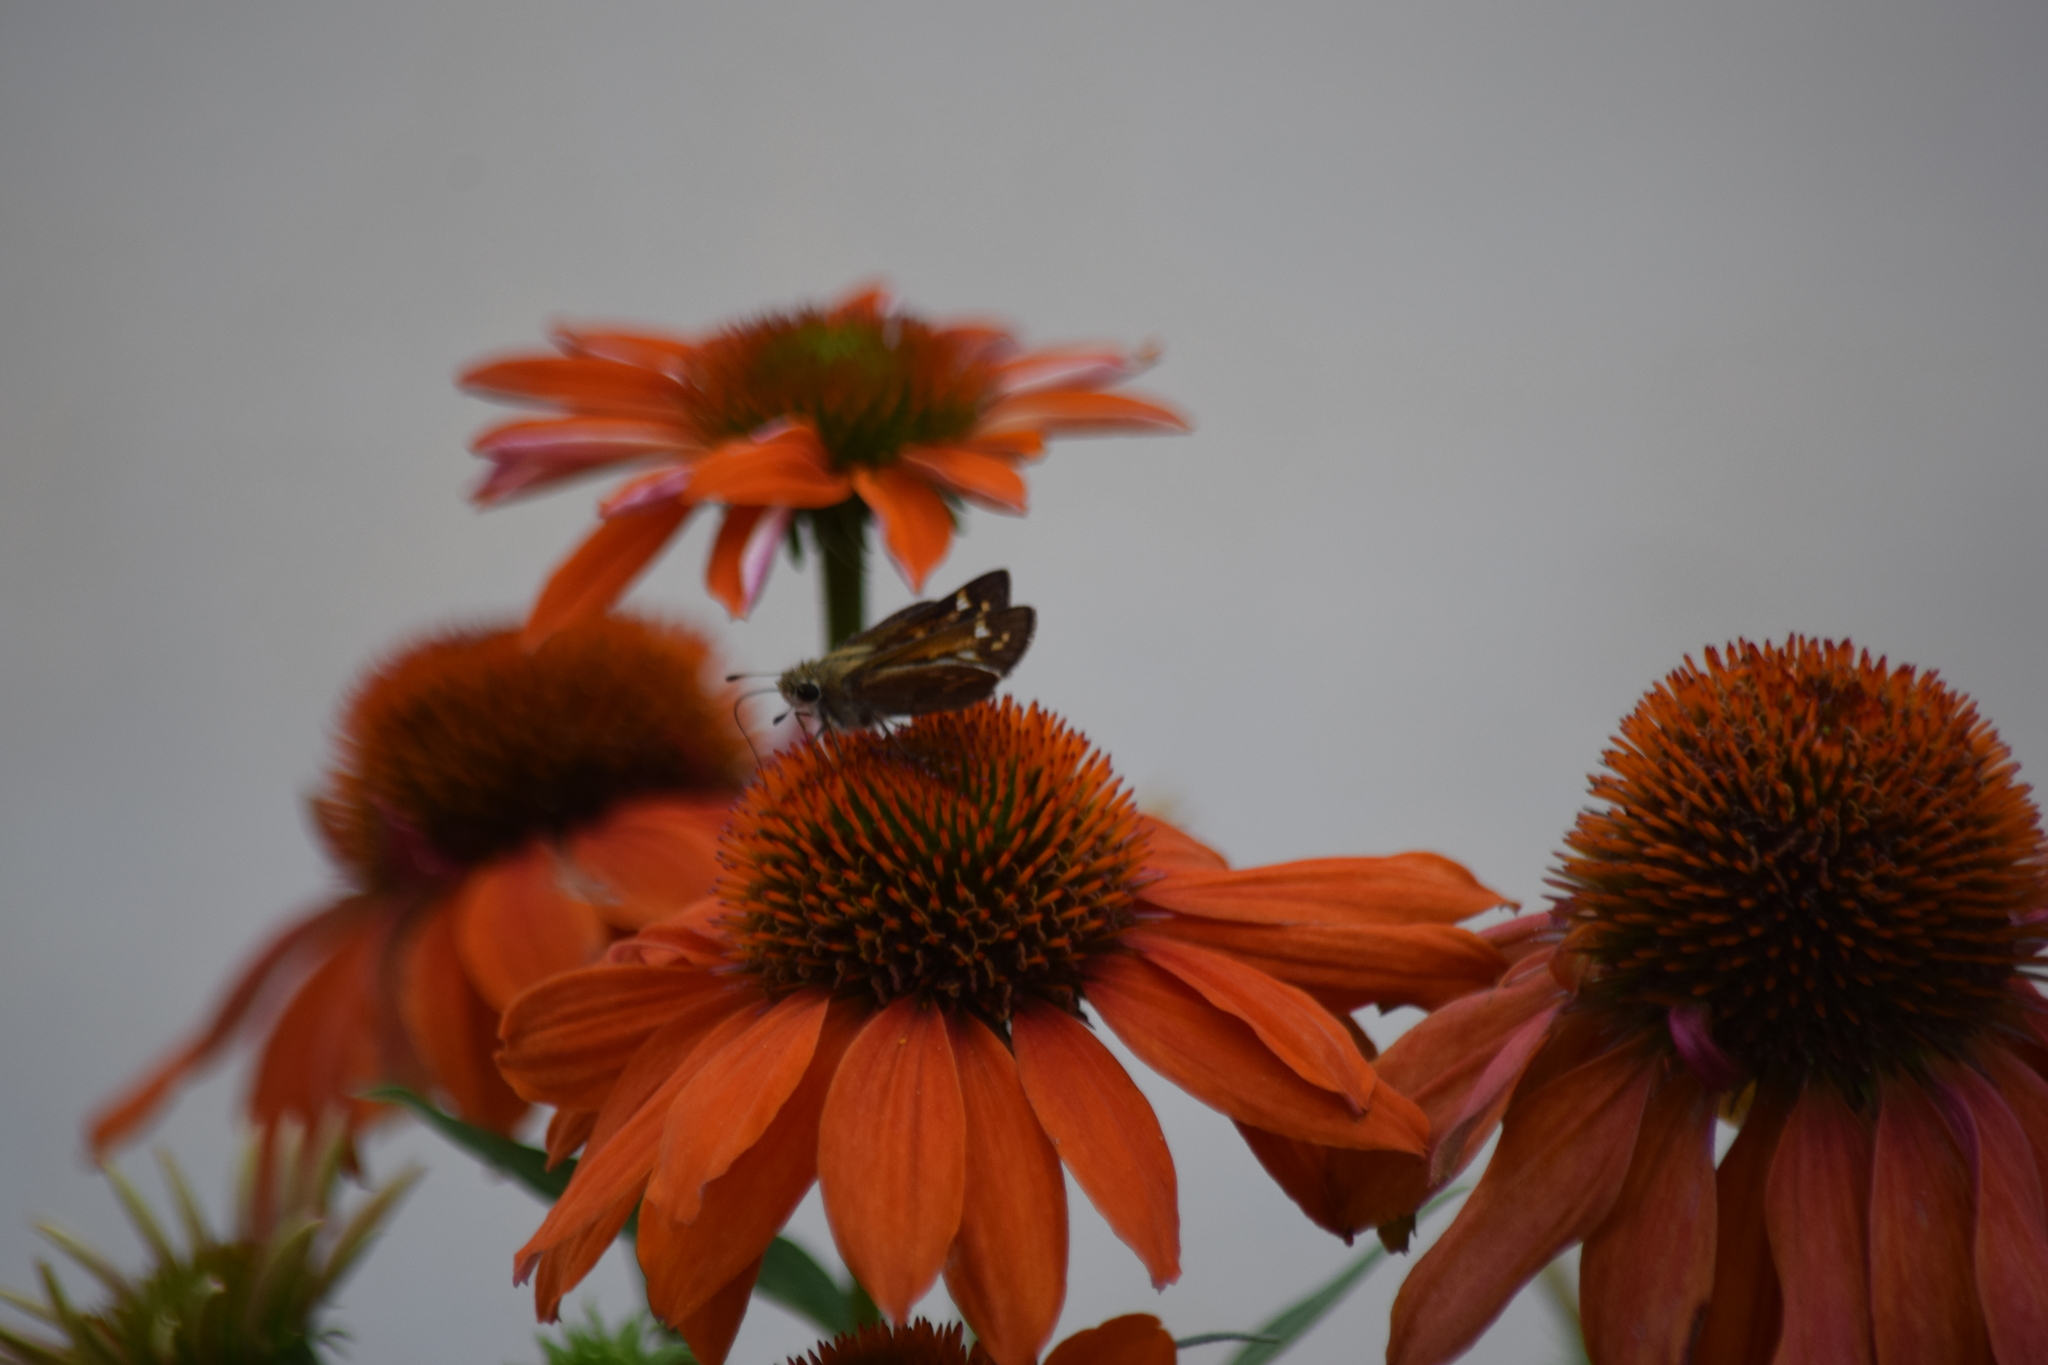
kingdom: Animalia
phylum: Arthropoda
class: Insecta
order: Lepidoptera
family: Hesperiidae
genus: Atalopedes
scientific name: Atalopedes
